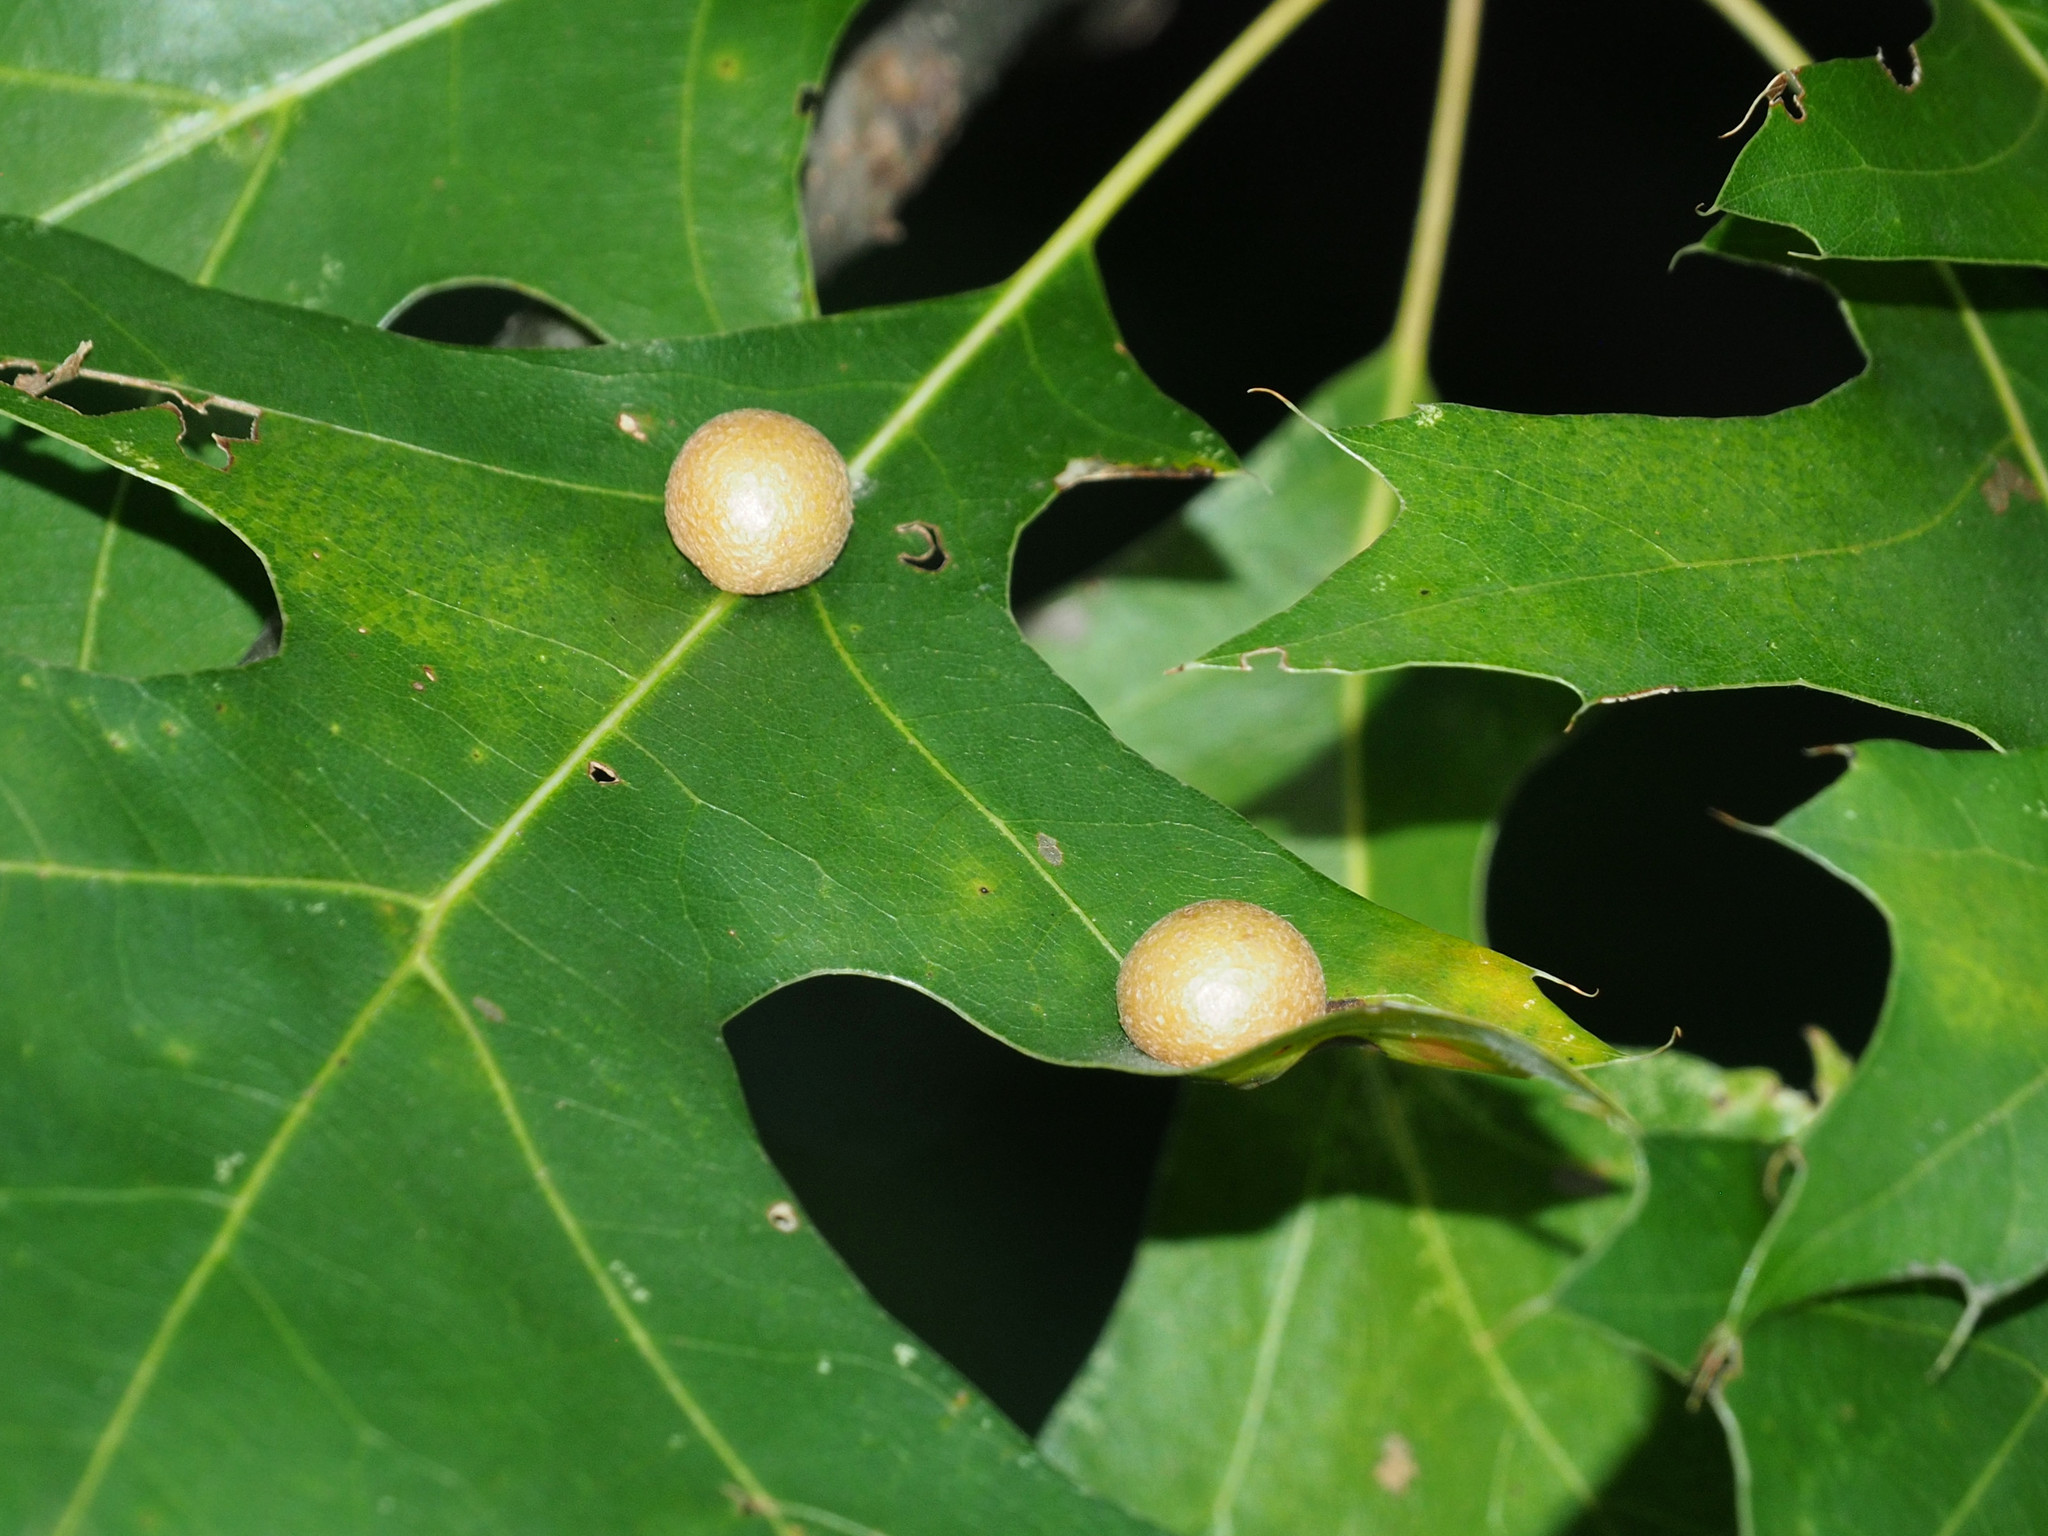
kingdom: Animalia
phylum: Arthropoda
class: Insecta
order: Diptera
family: Cecidomyiidae
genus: Polystepha
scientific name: Polystepha pilulae
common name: Oak leaf gall midge
